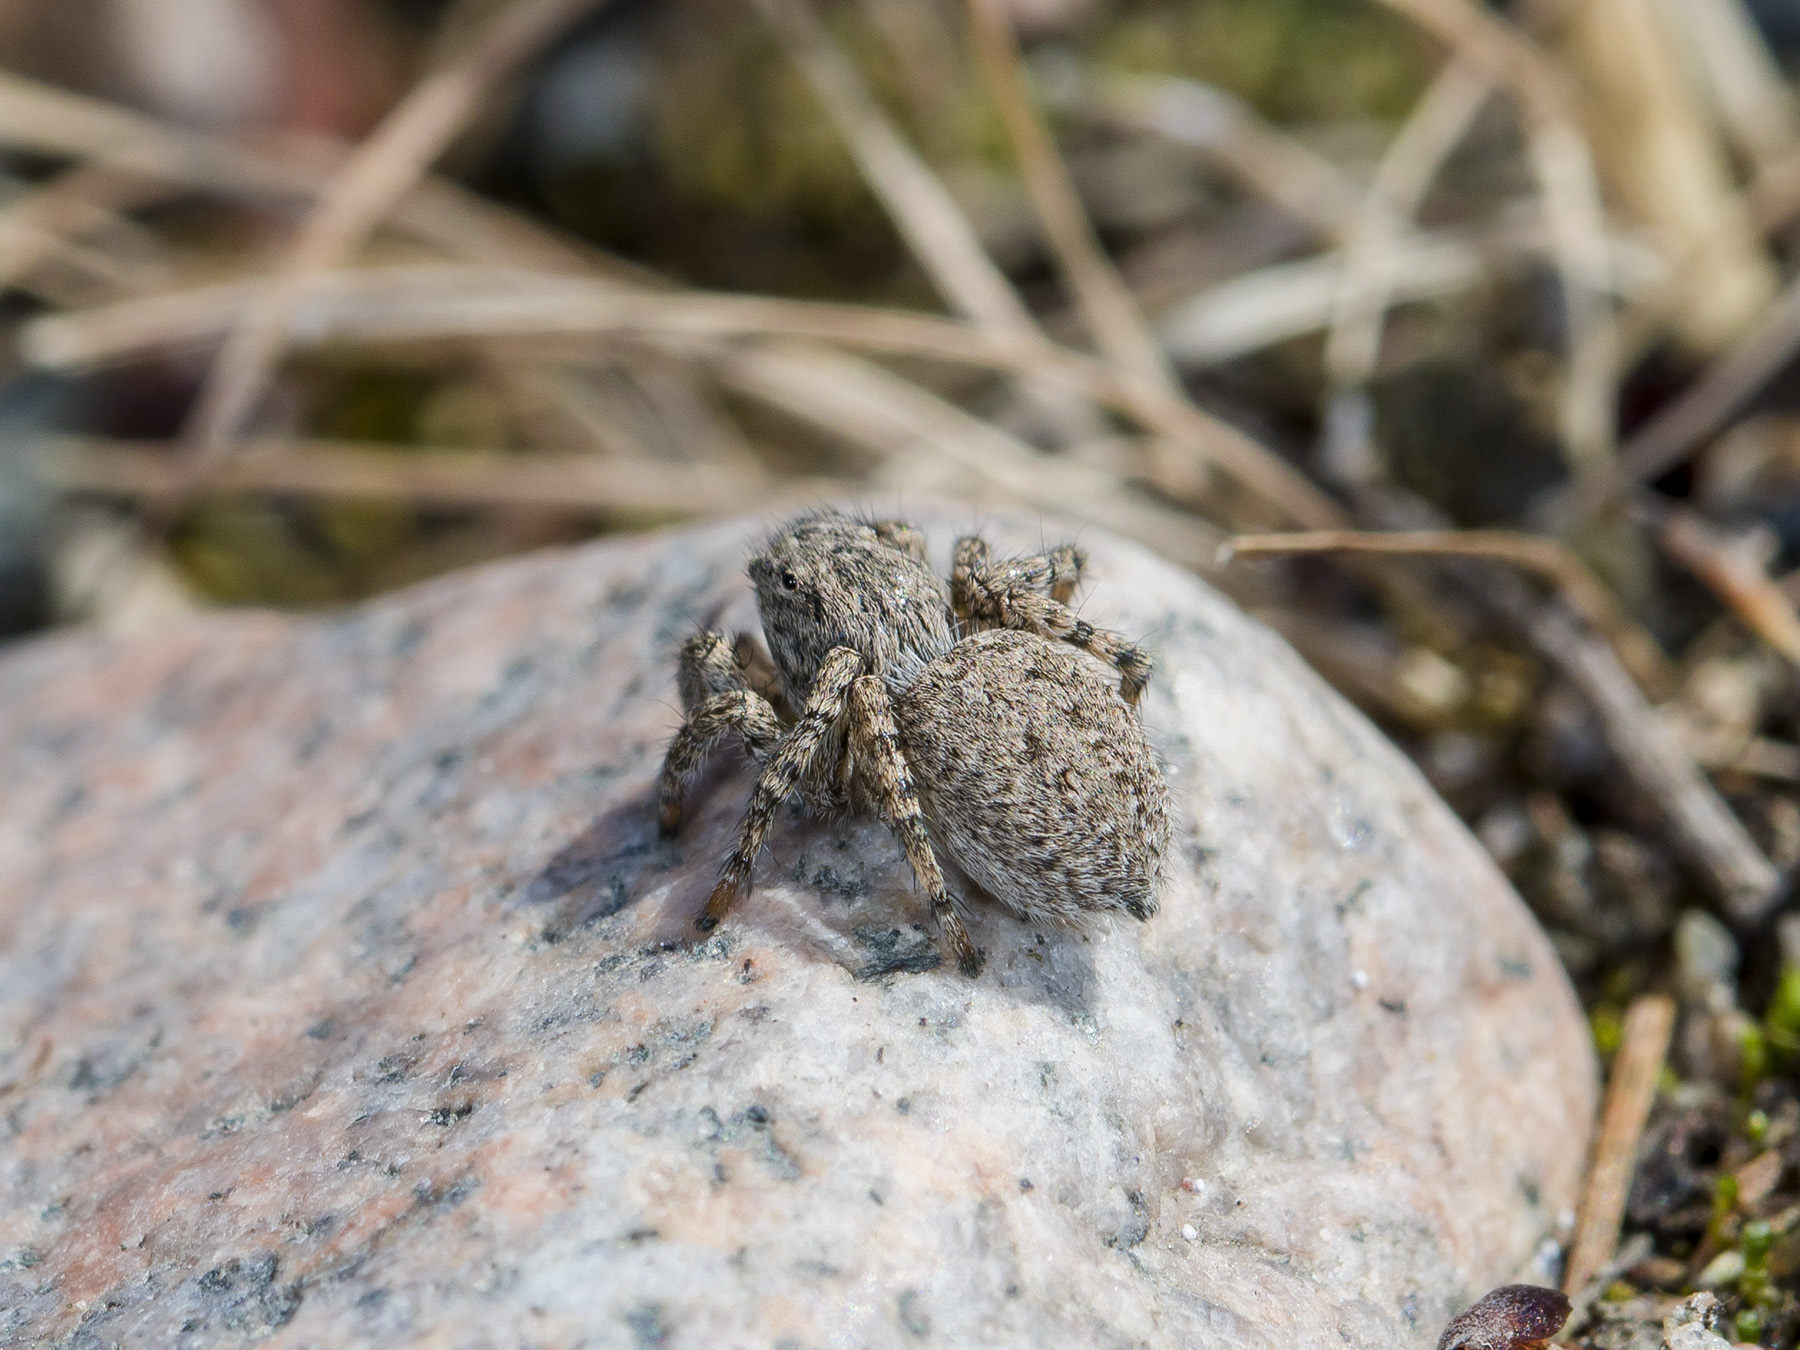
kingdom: Animalia
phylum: Arthropoda
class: Arachnida
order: Araneae
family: Salticidae
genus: Aelurillus
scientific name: Aelurillus v-insignitus
